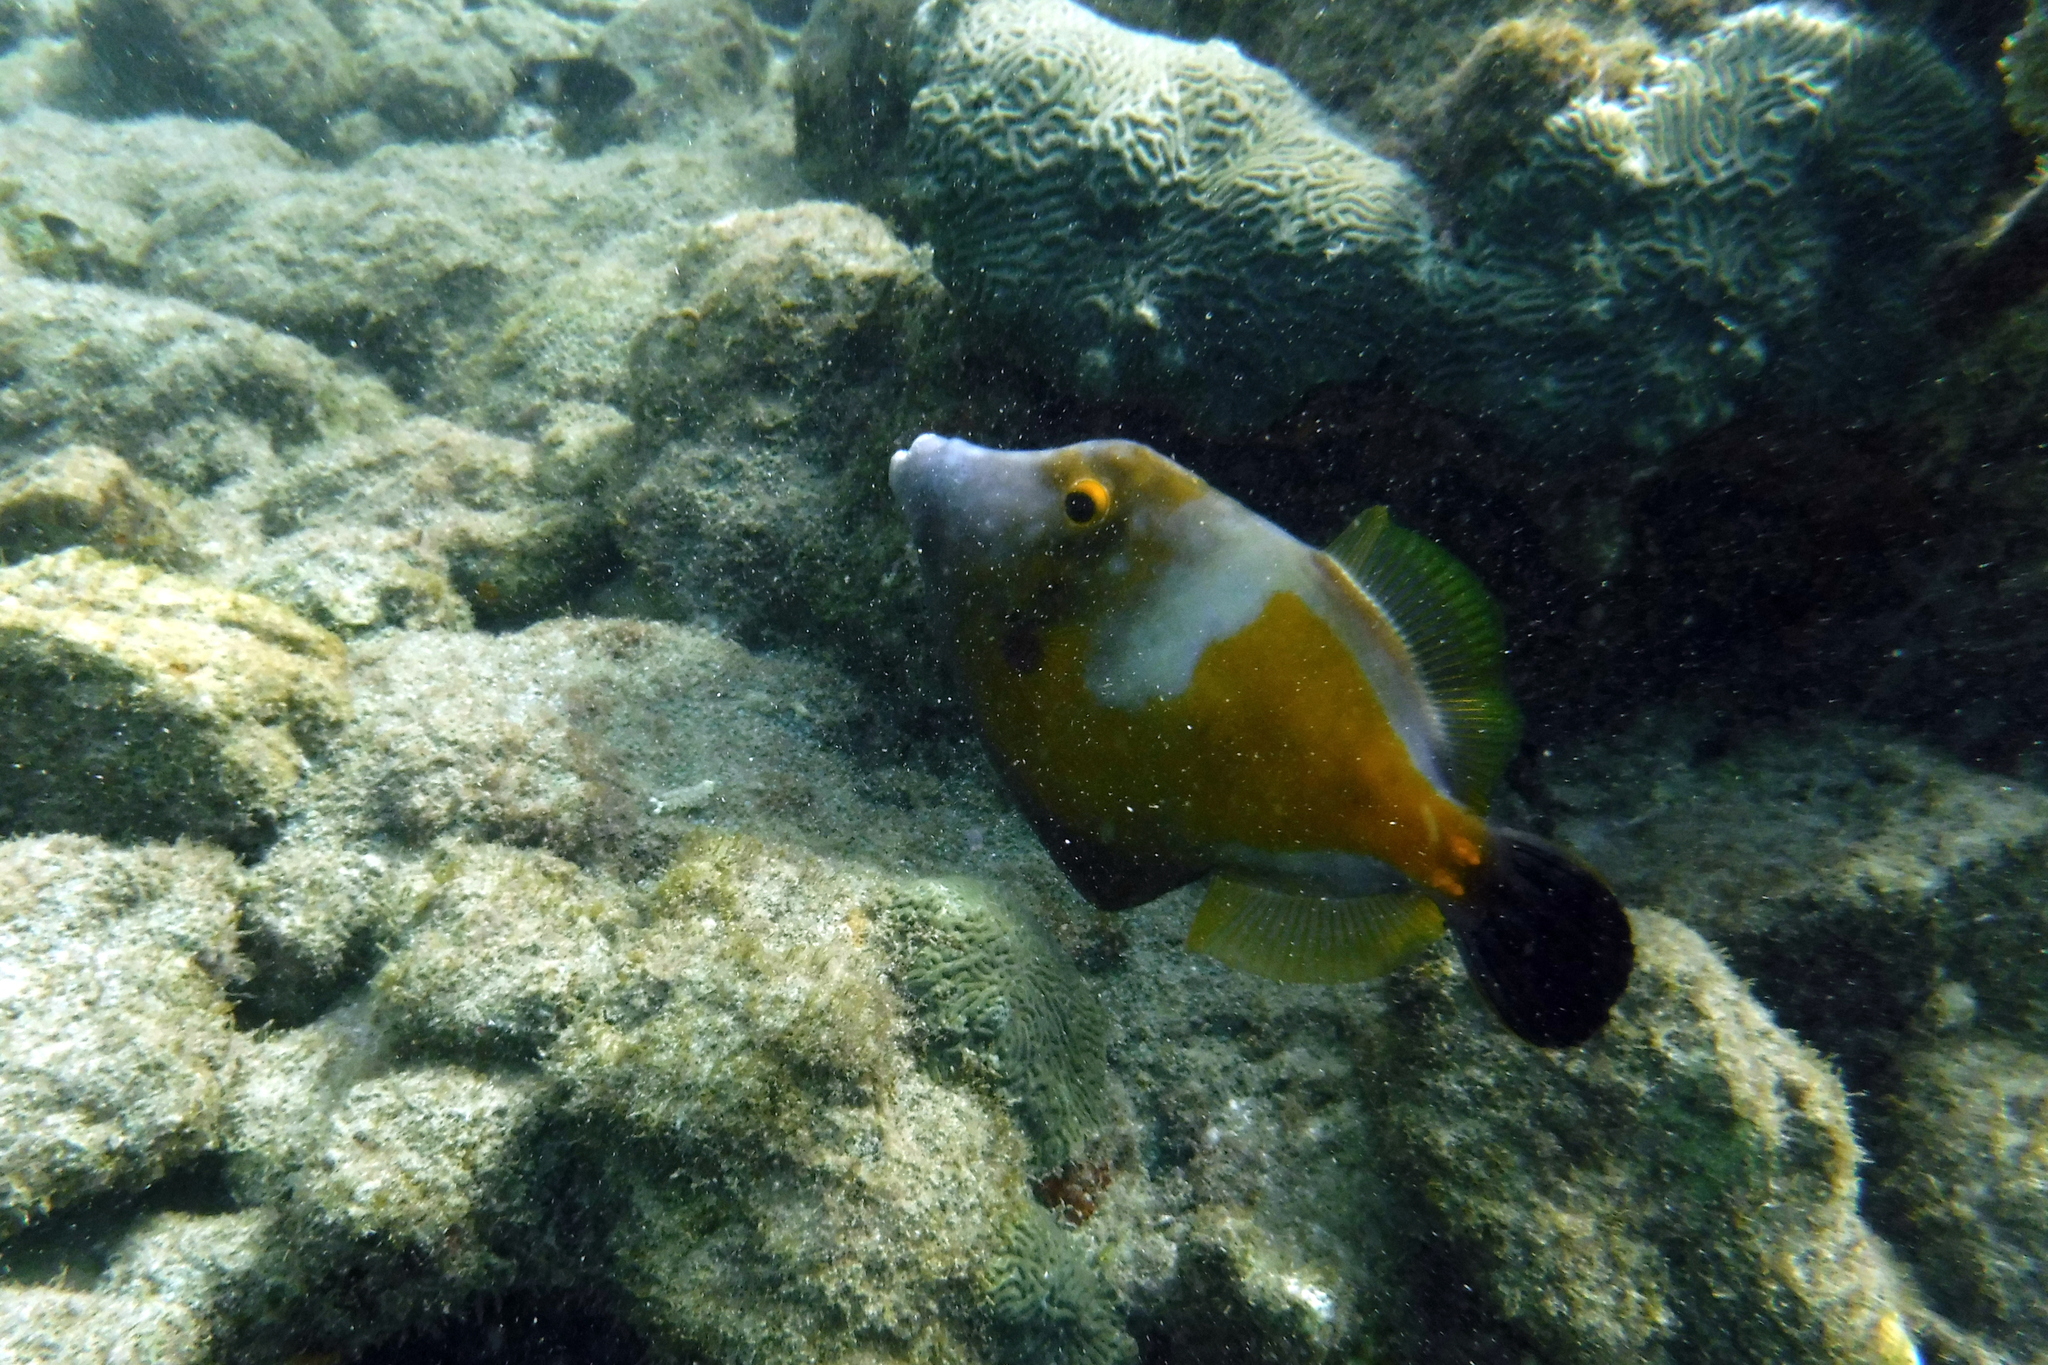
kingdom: Animalia
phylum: Chordata
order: Tetraodontiformes
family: Monacanthidae
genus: Cantherhines
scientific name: Cantherhines macrocerus
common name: Whitespotted filefish
